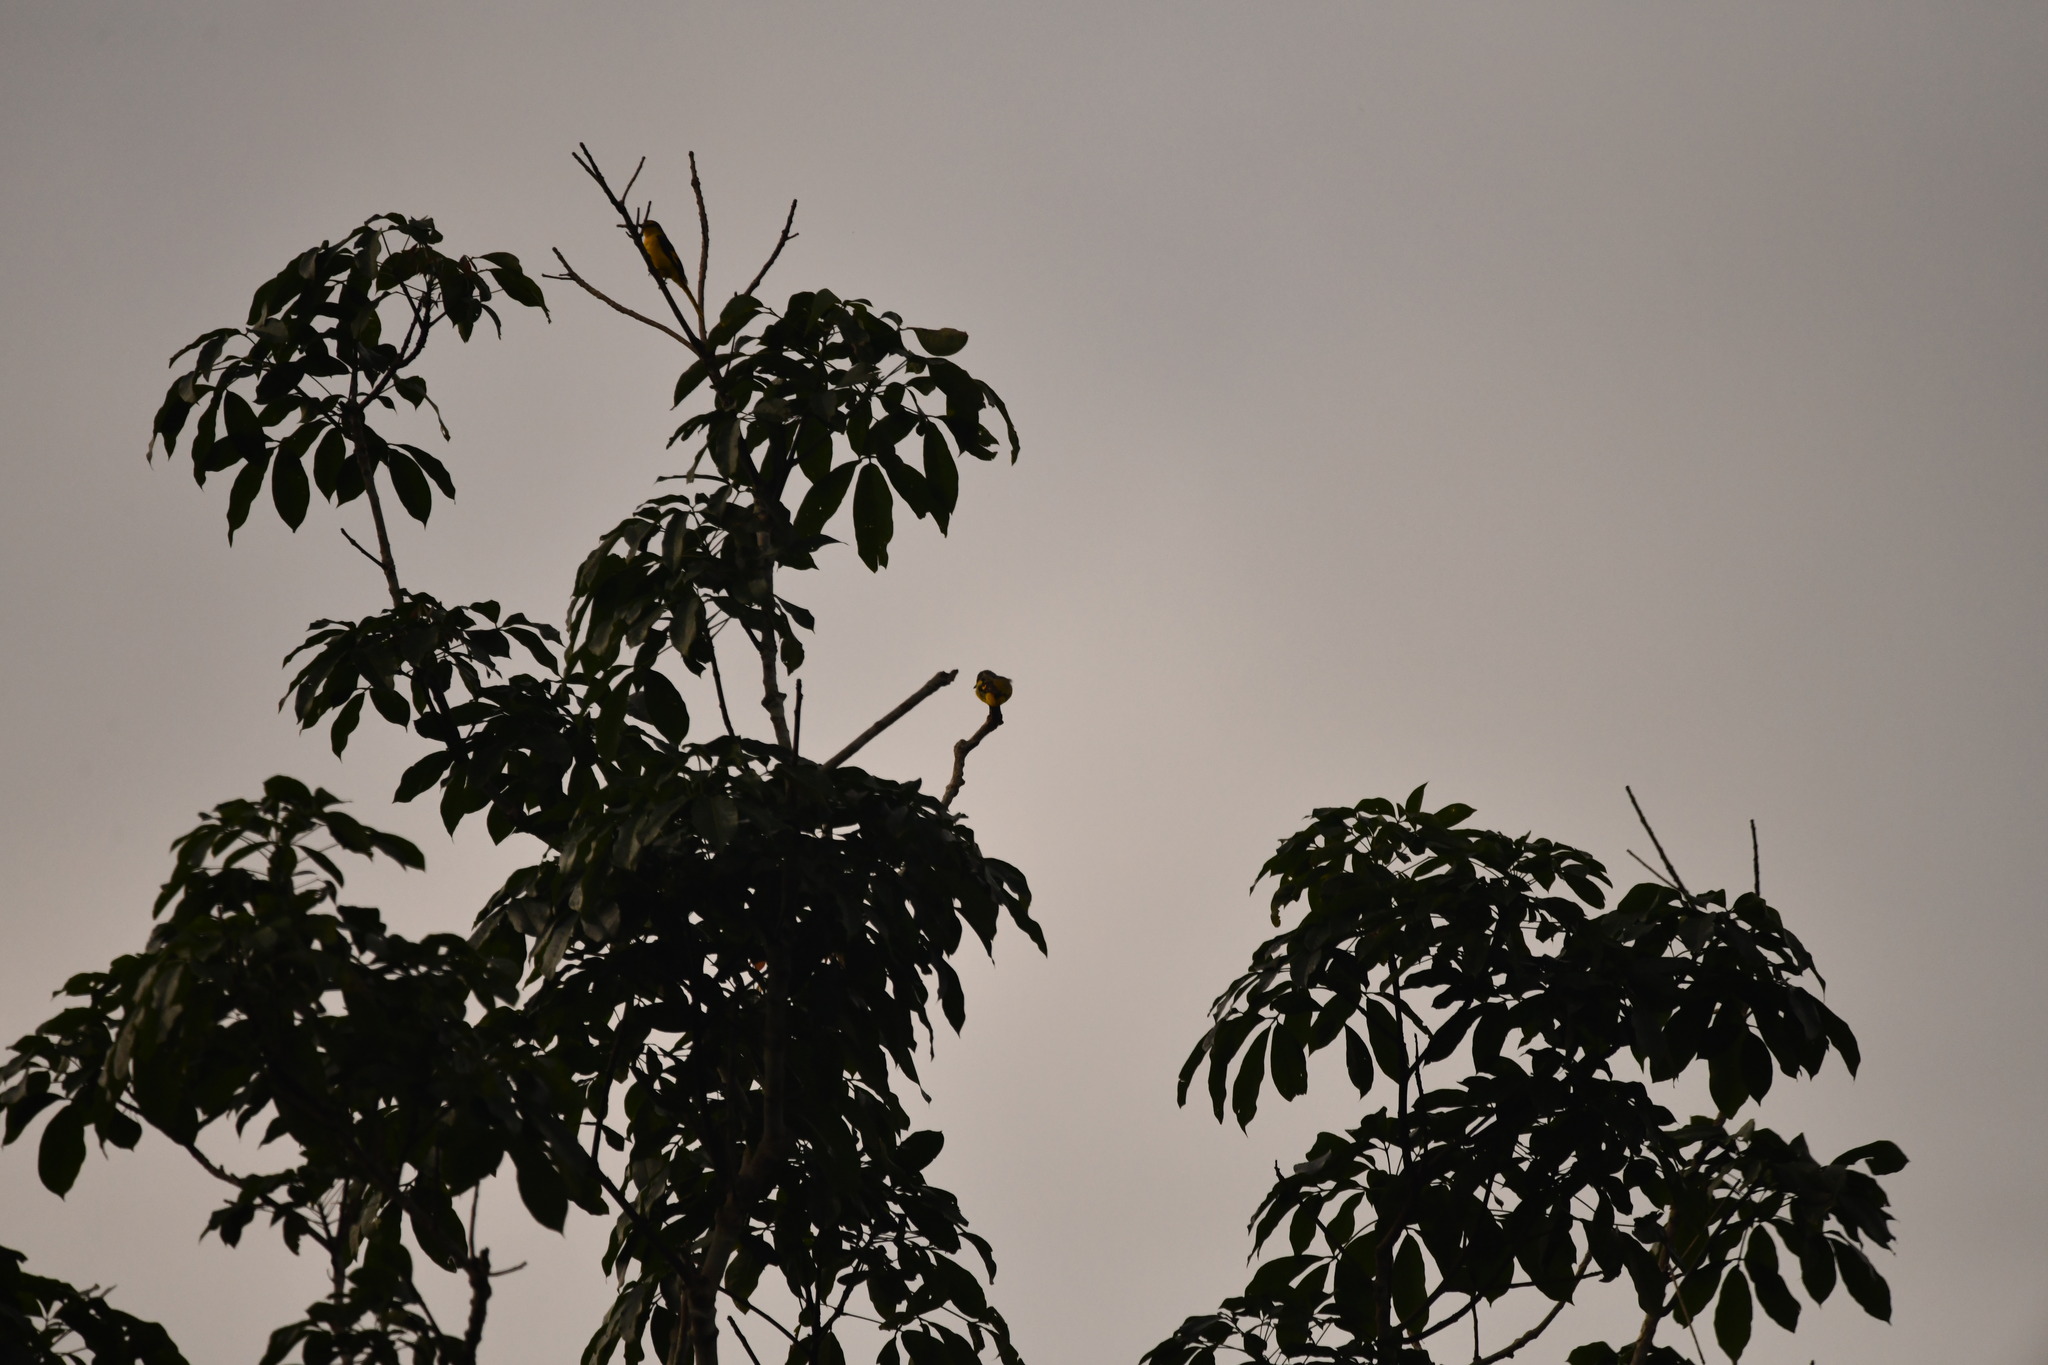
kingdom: Animalia
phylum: Chordata
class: Aves
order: Passeriformes
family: Campephagidae
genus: Pericrocotus
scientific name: Pericrocotus flammeus
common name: Orange minivet
